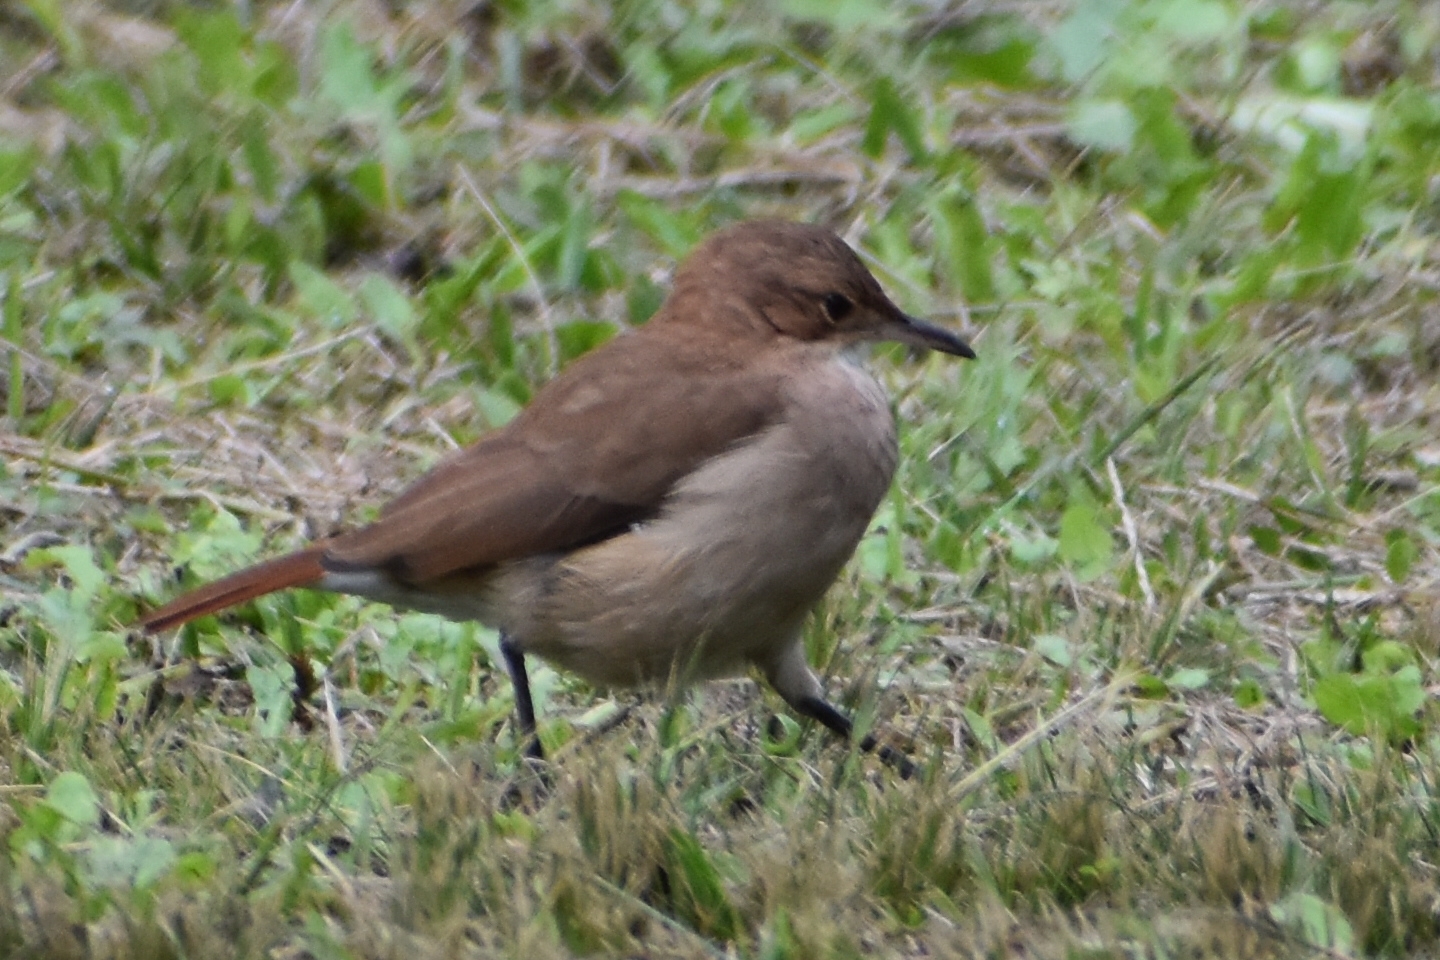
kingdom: Animalia
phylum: Chordata
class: Aves
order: Passeriformes
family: Furnariidae
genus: Furnarius
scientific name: Furnarius rufus
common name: Rufous hornero
